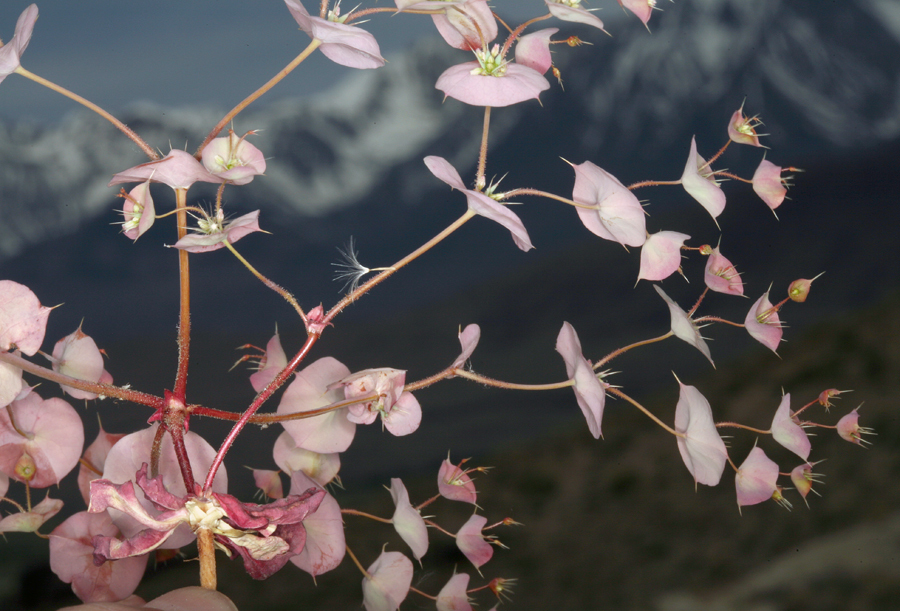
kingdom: Plantae
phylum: Tracheophyta
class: Magnoliopsida
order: Caryophyllales
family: Polygonaceae
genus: Oxytheca
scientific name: Oxytheca perfoliata
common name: Round-leaf puncturebract
